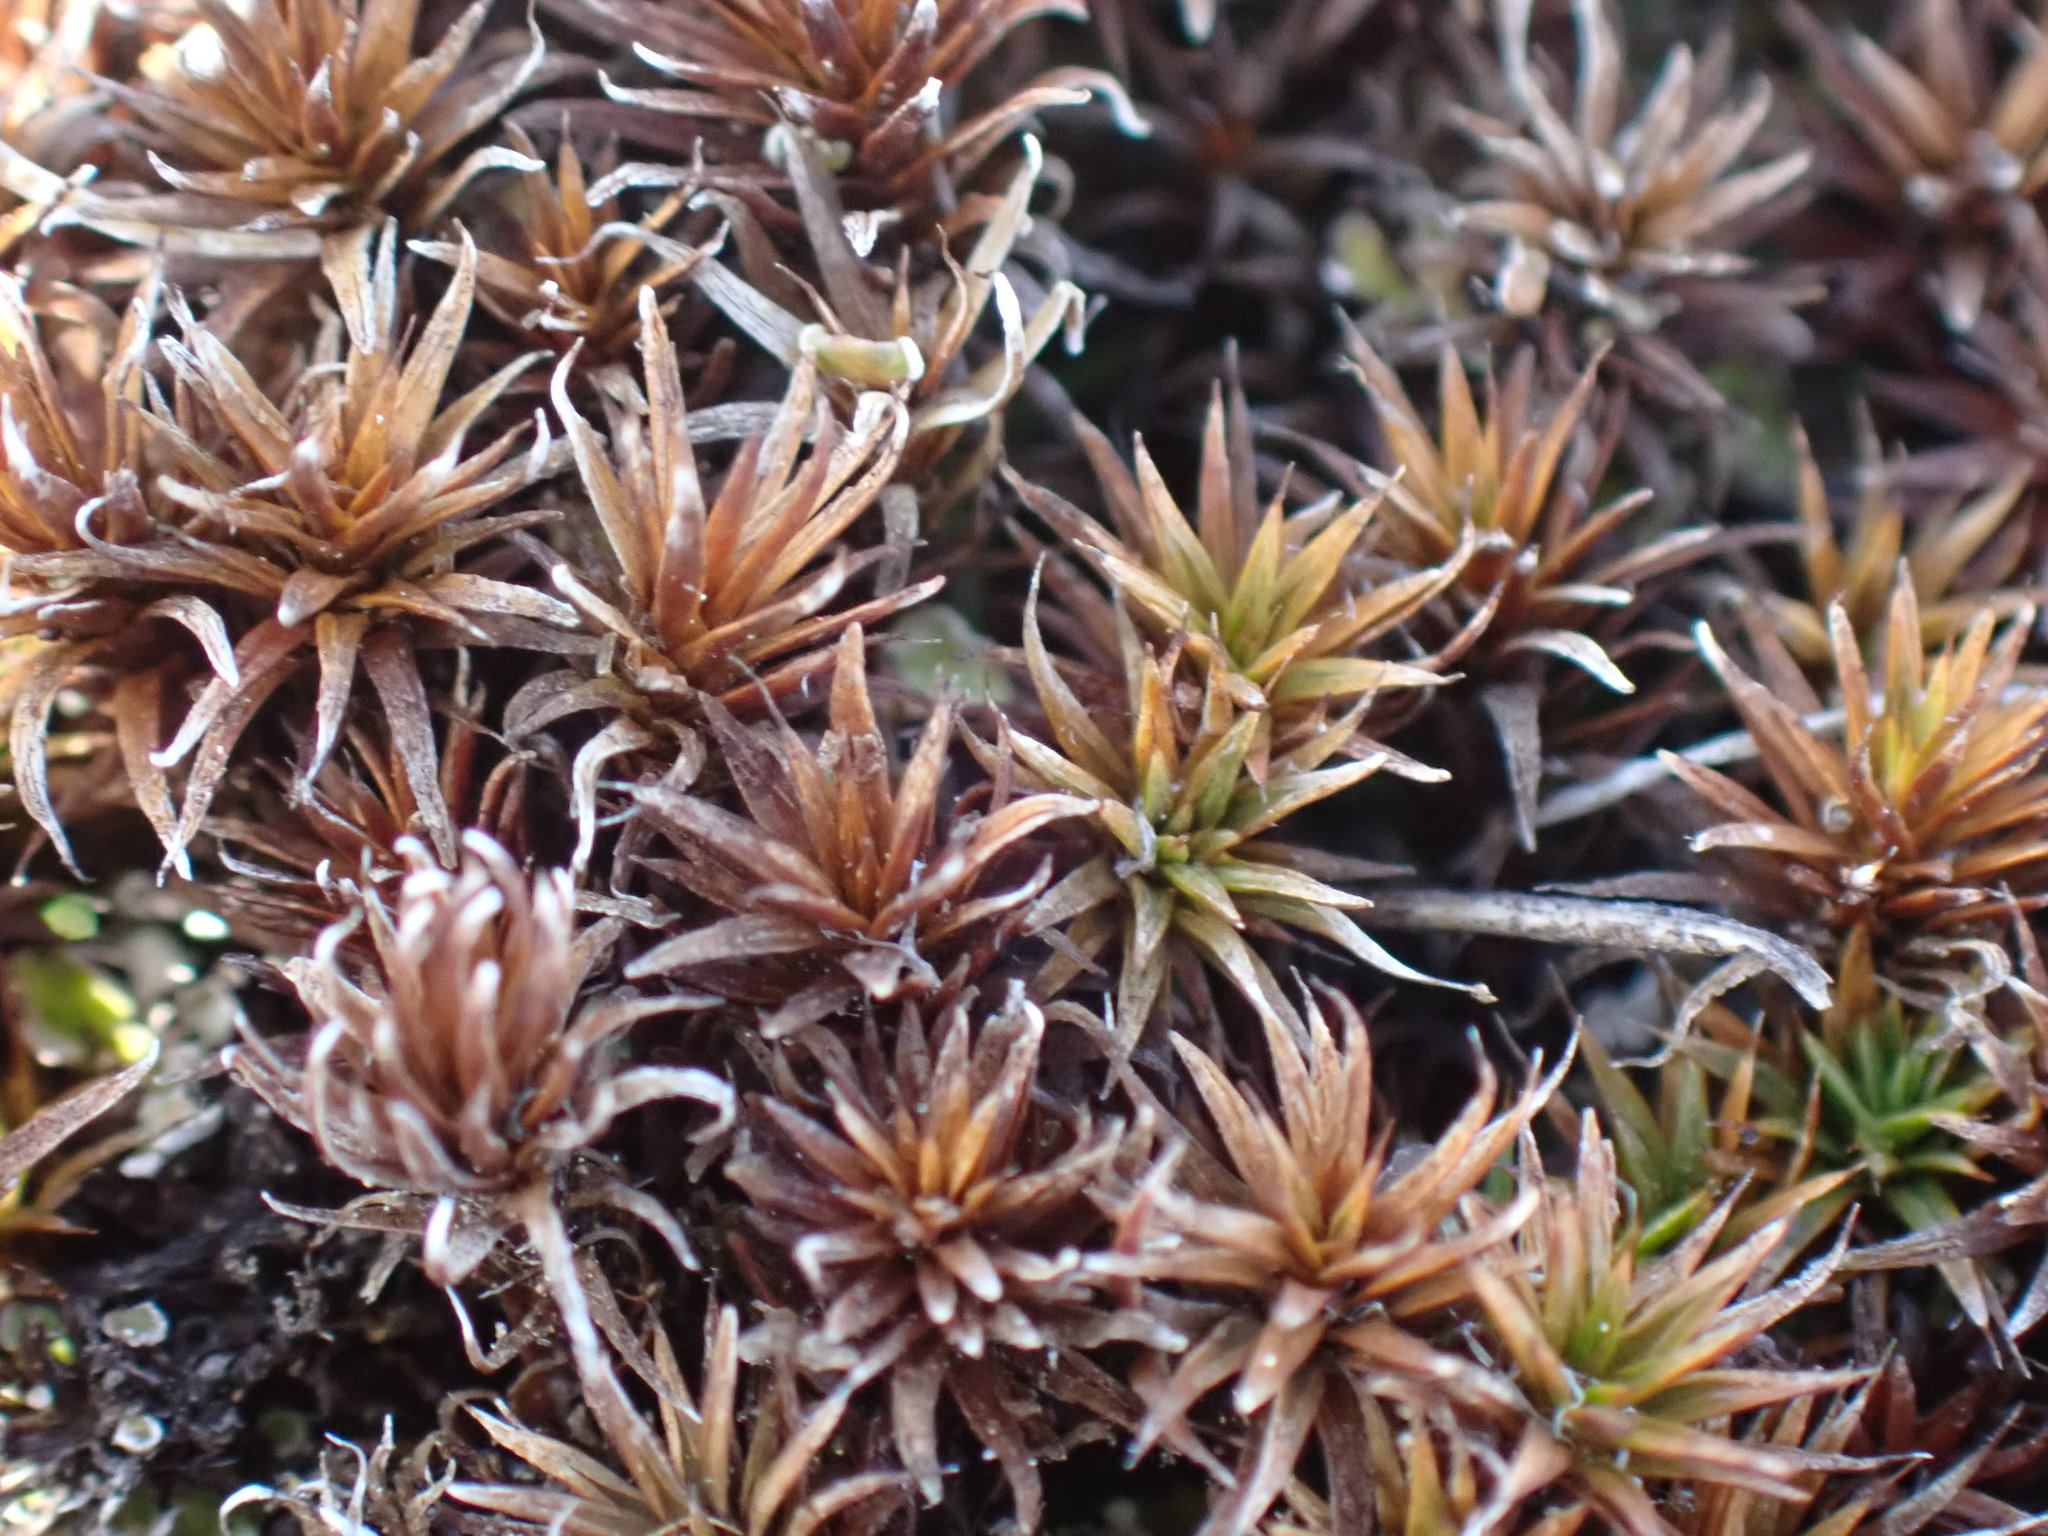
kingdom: Plantae
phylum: Bryophyta
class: Polytrichopsida
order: Polytrichales
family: Polytrichaceae
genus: Polytrichum
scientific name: Polytrichum juniperinum
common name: Juniper haircap moss
